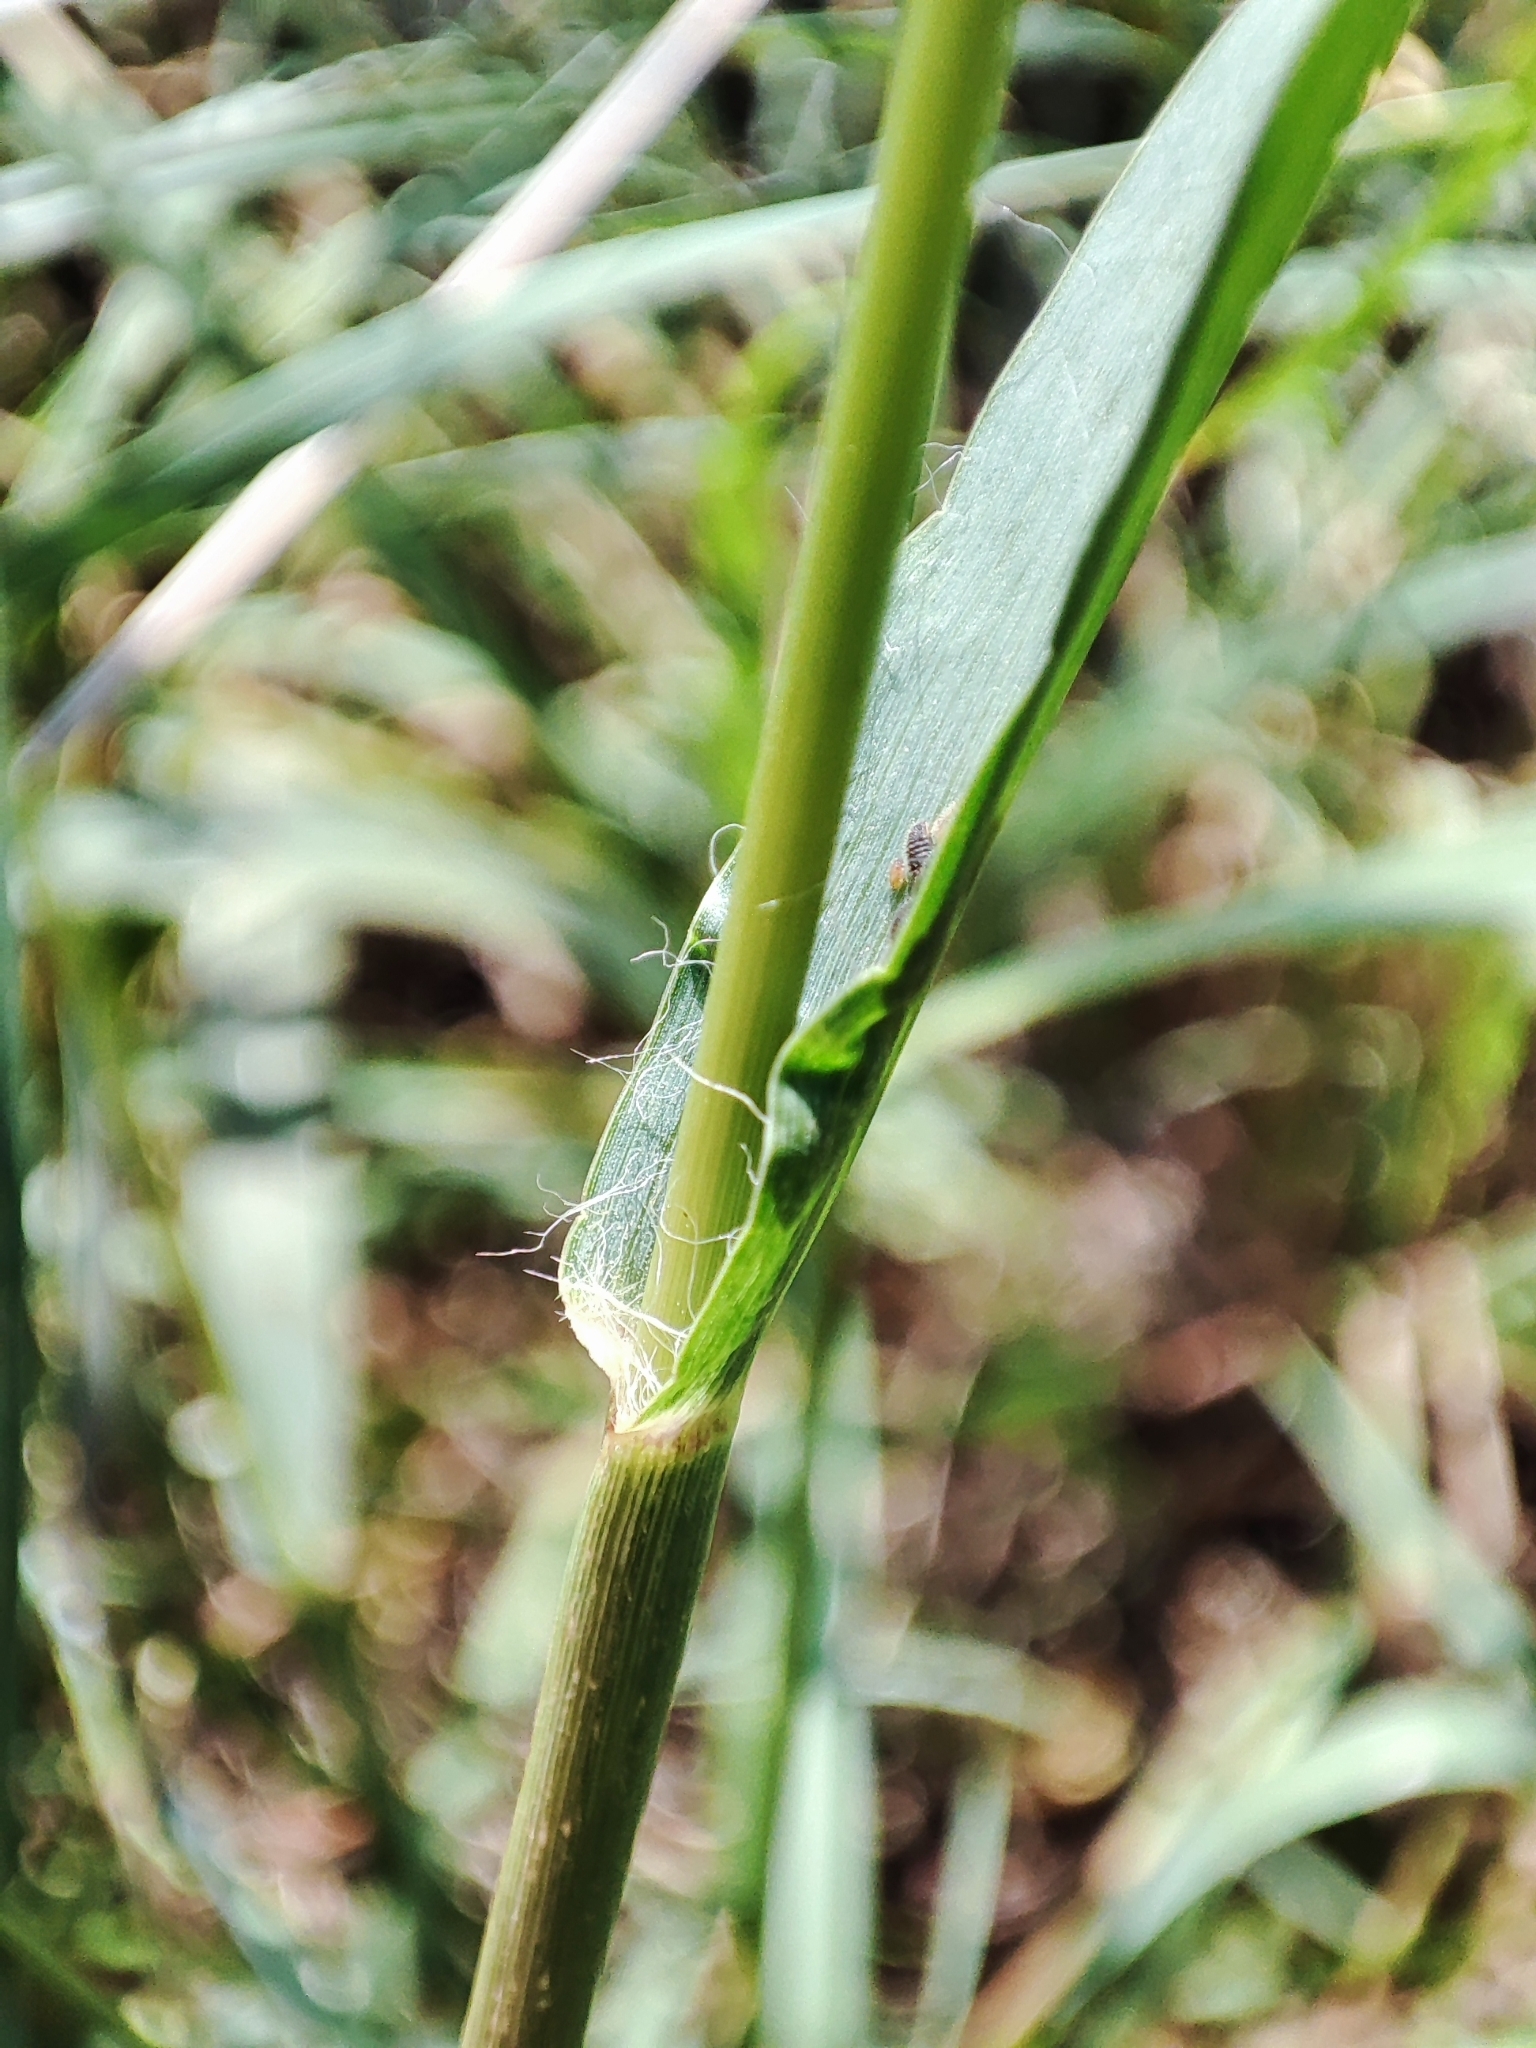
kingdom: Plantae
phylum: Tracheophyta
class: Liliopsida
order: Poales
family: Poaceae
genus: Setaria
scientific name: Setaria pumila
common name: Yellow bristle-grass
